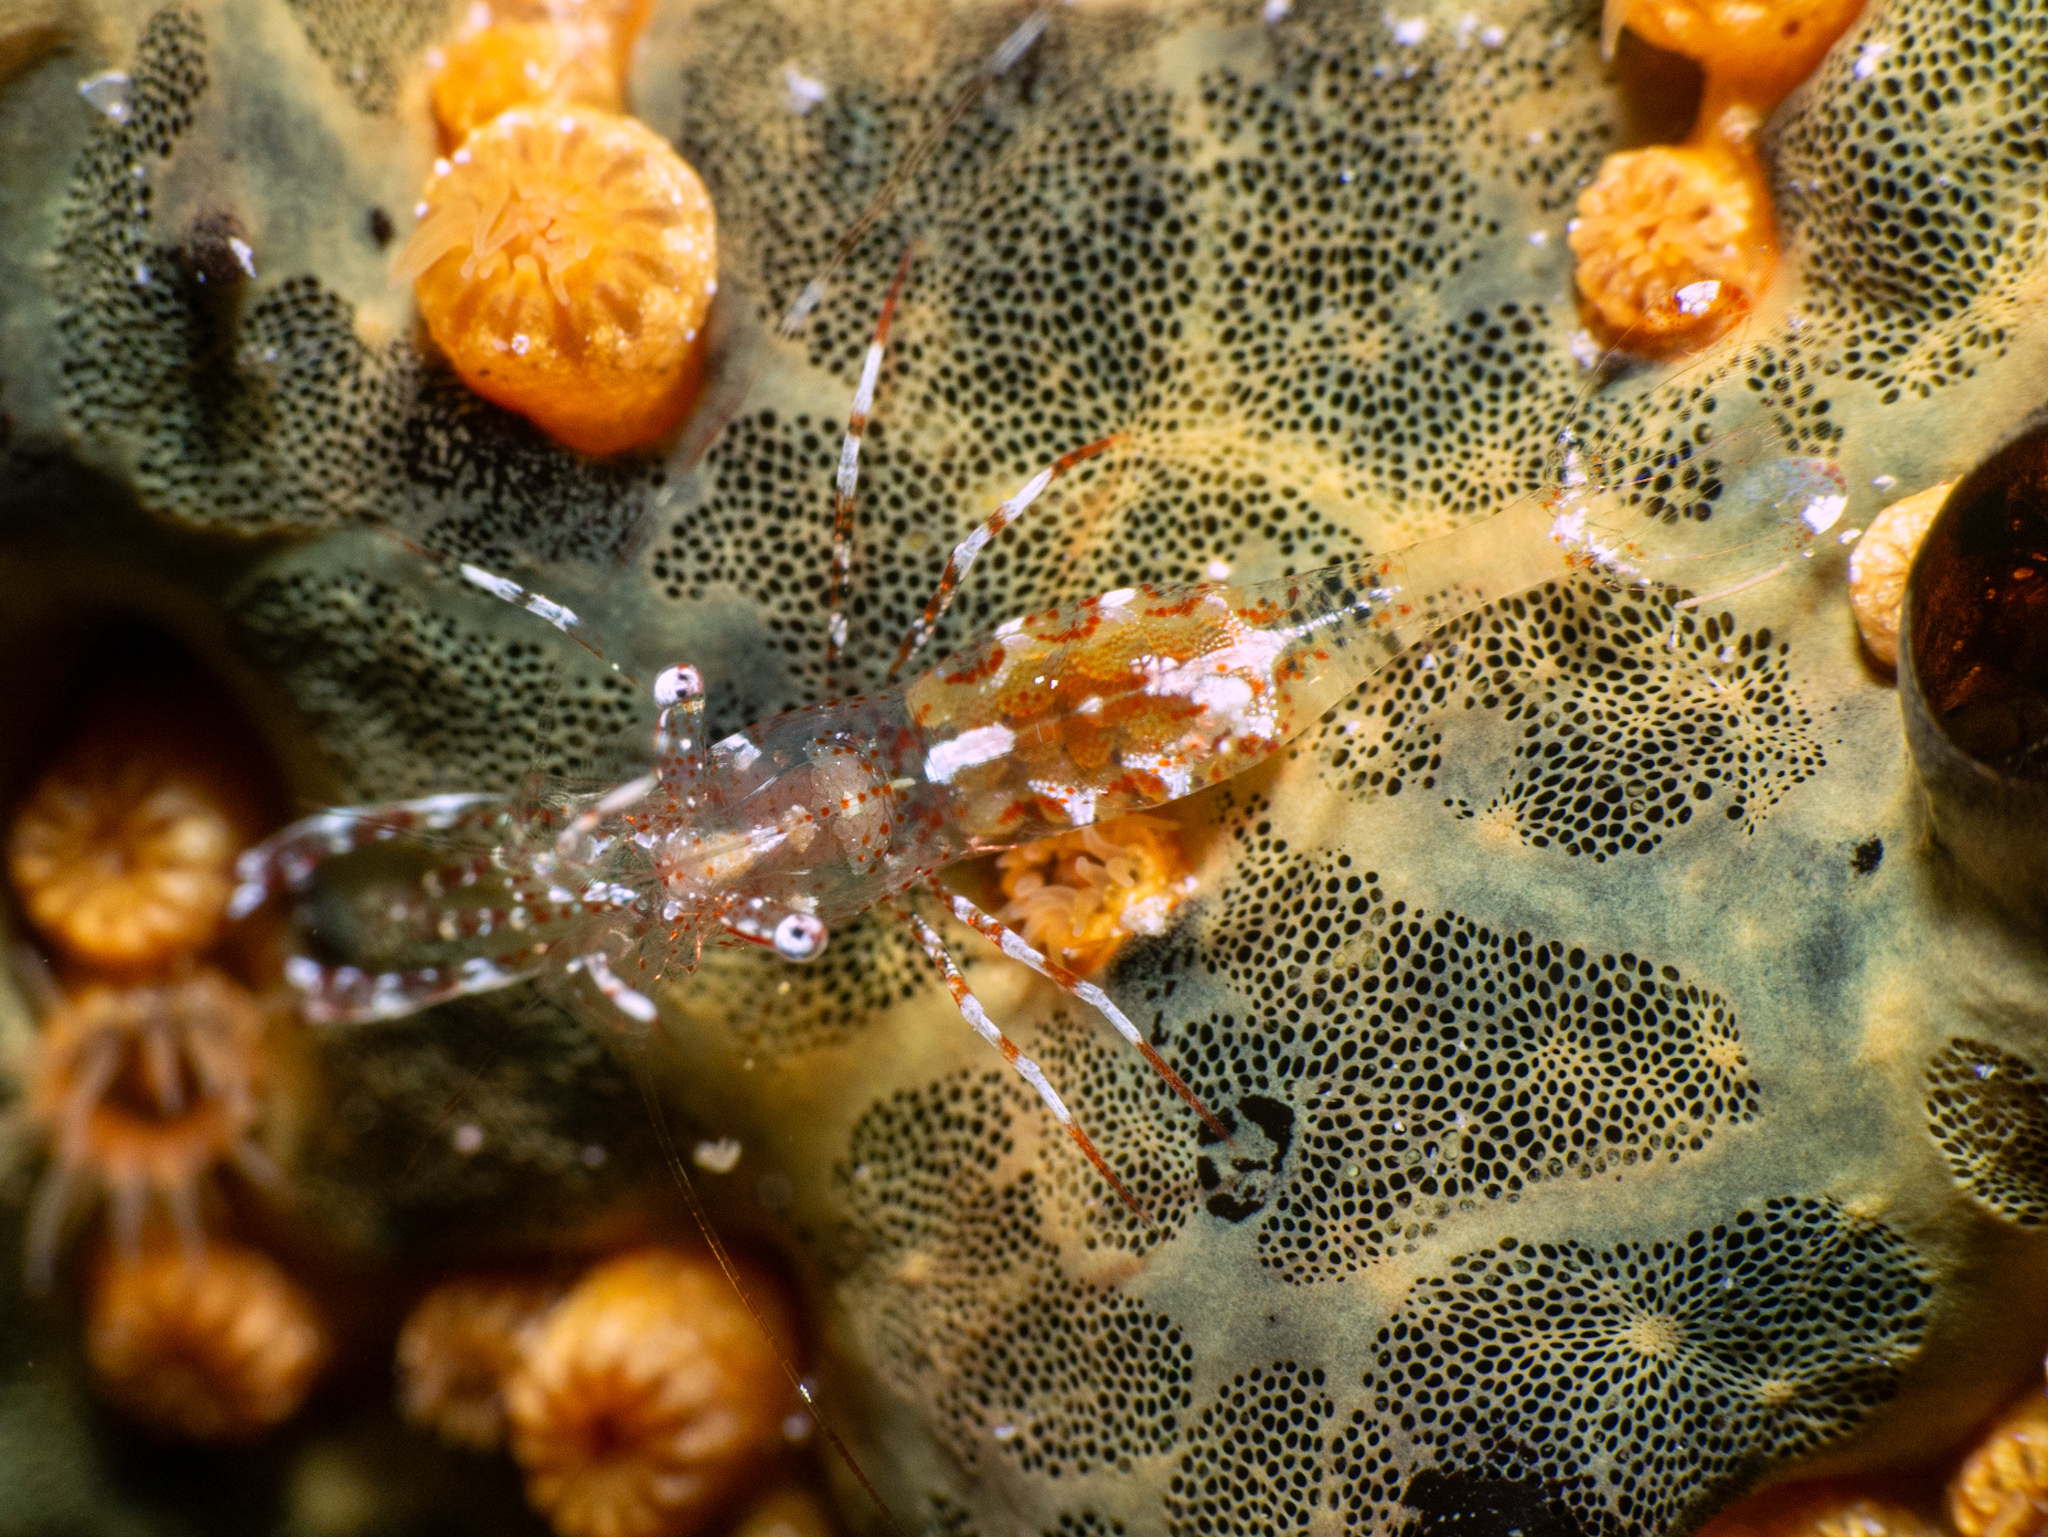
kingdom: Animalia
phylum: Arthropoda
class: Malacostraca
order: Decapoda
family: Palaemonidae
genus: Periclimenes
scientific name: Periclimenes rathbunae
